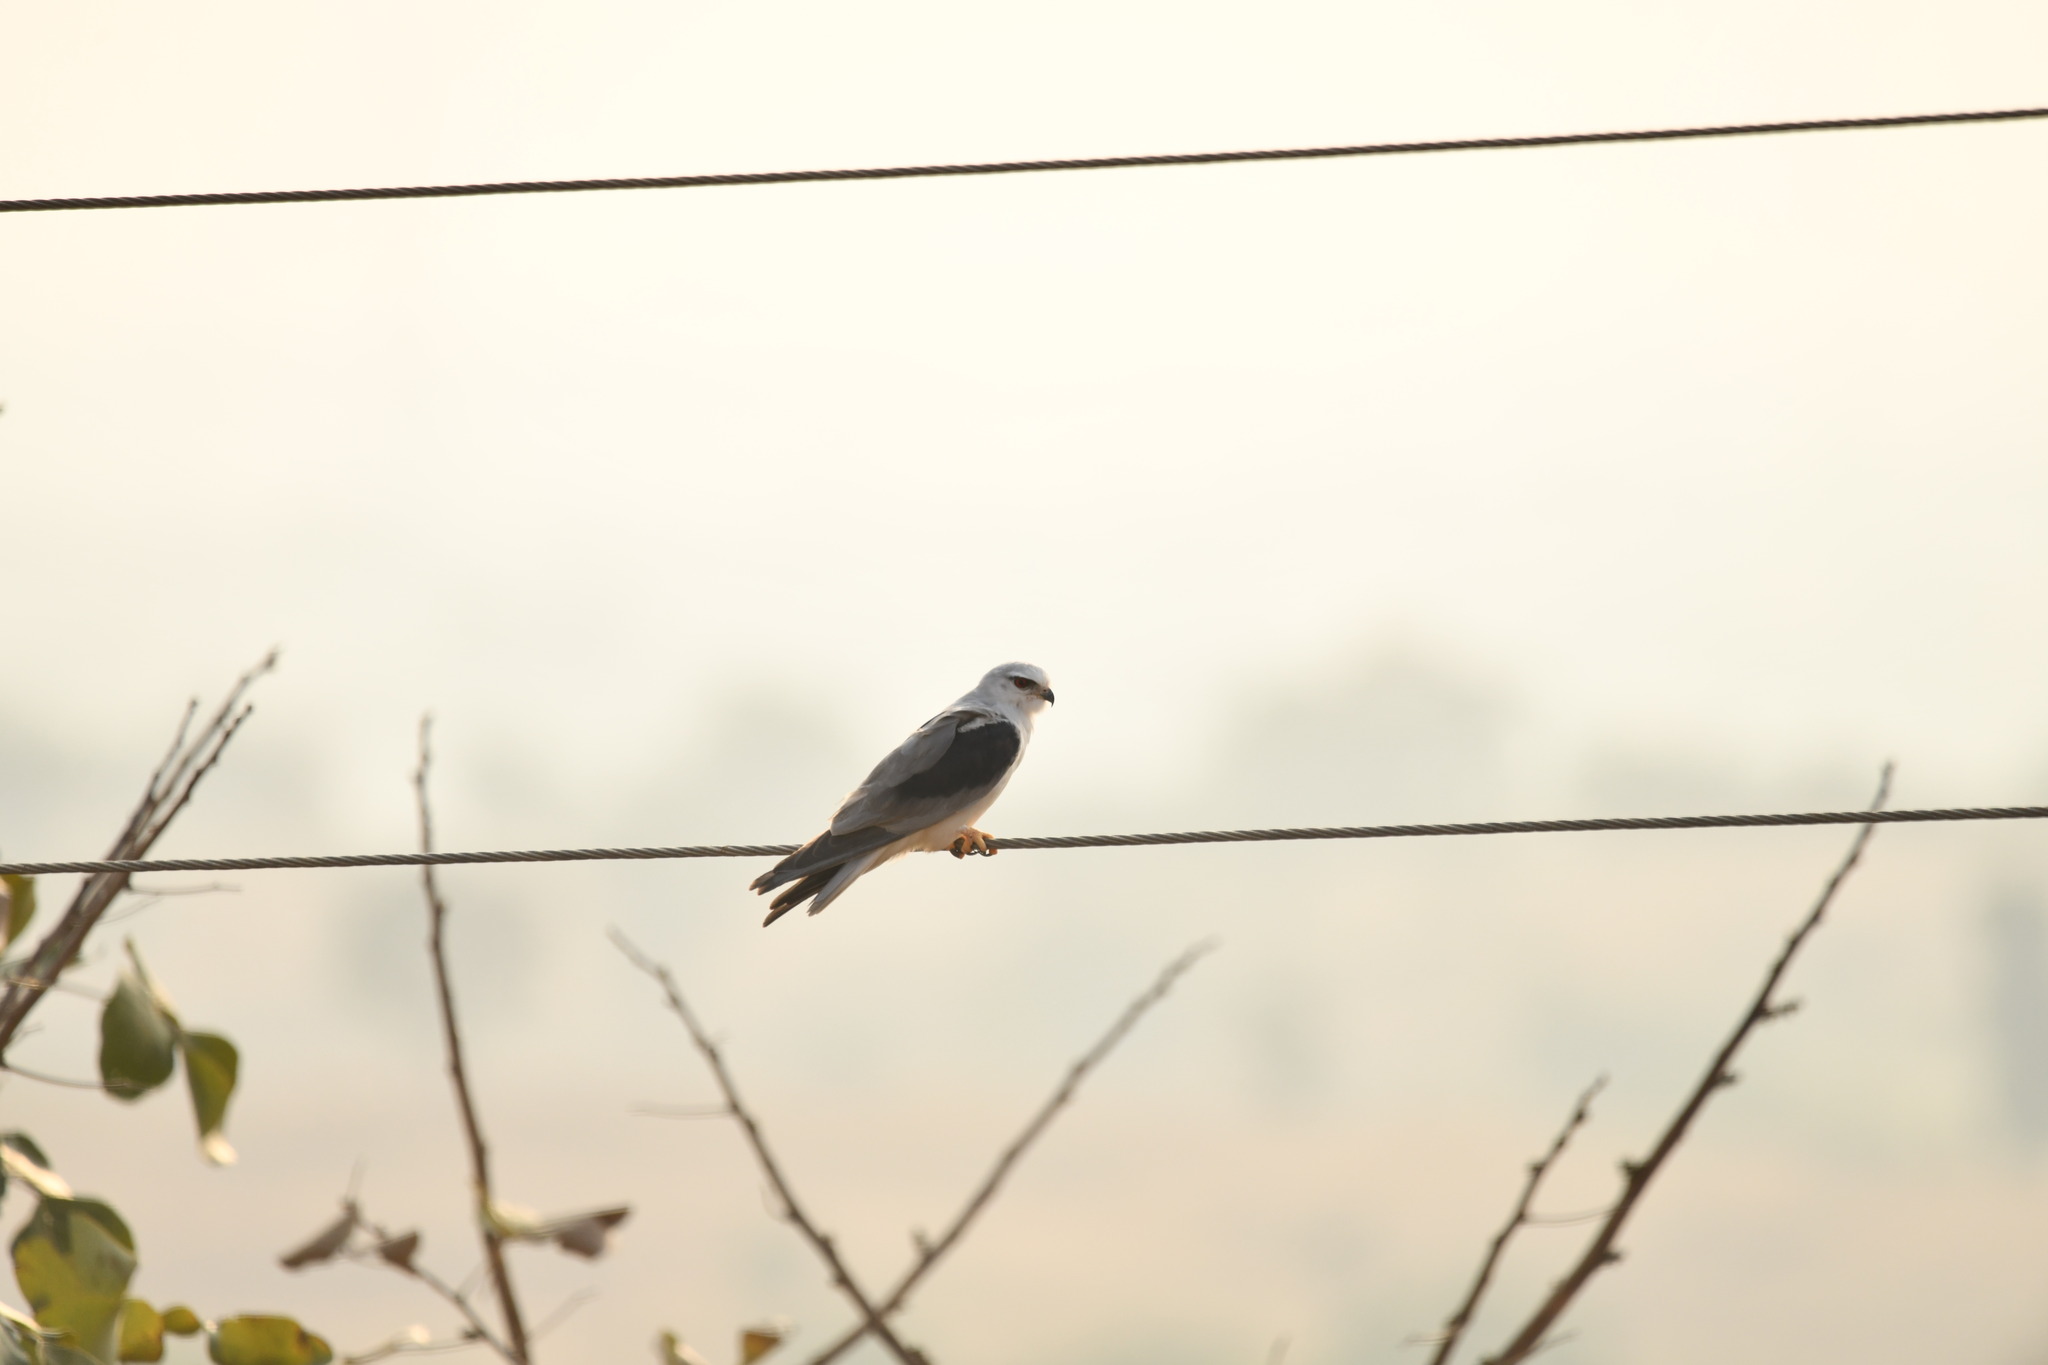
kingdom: Animalia
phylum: Chordata
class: Aves
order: Accipitriformes
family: Accipitridae
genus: Elanus
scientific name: Elanus caeruleus
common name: Black-winged kite
